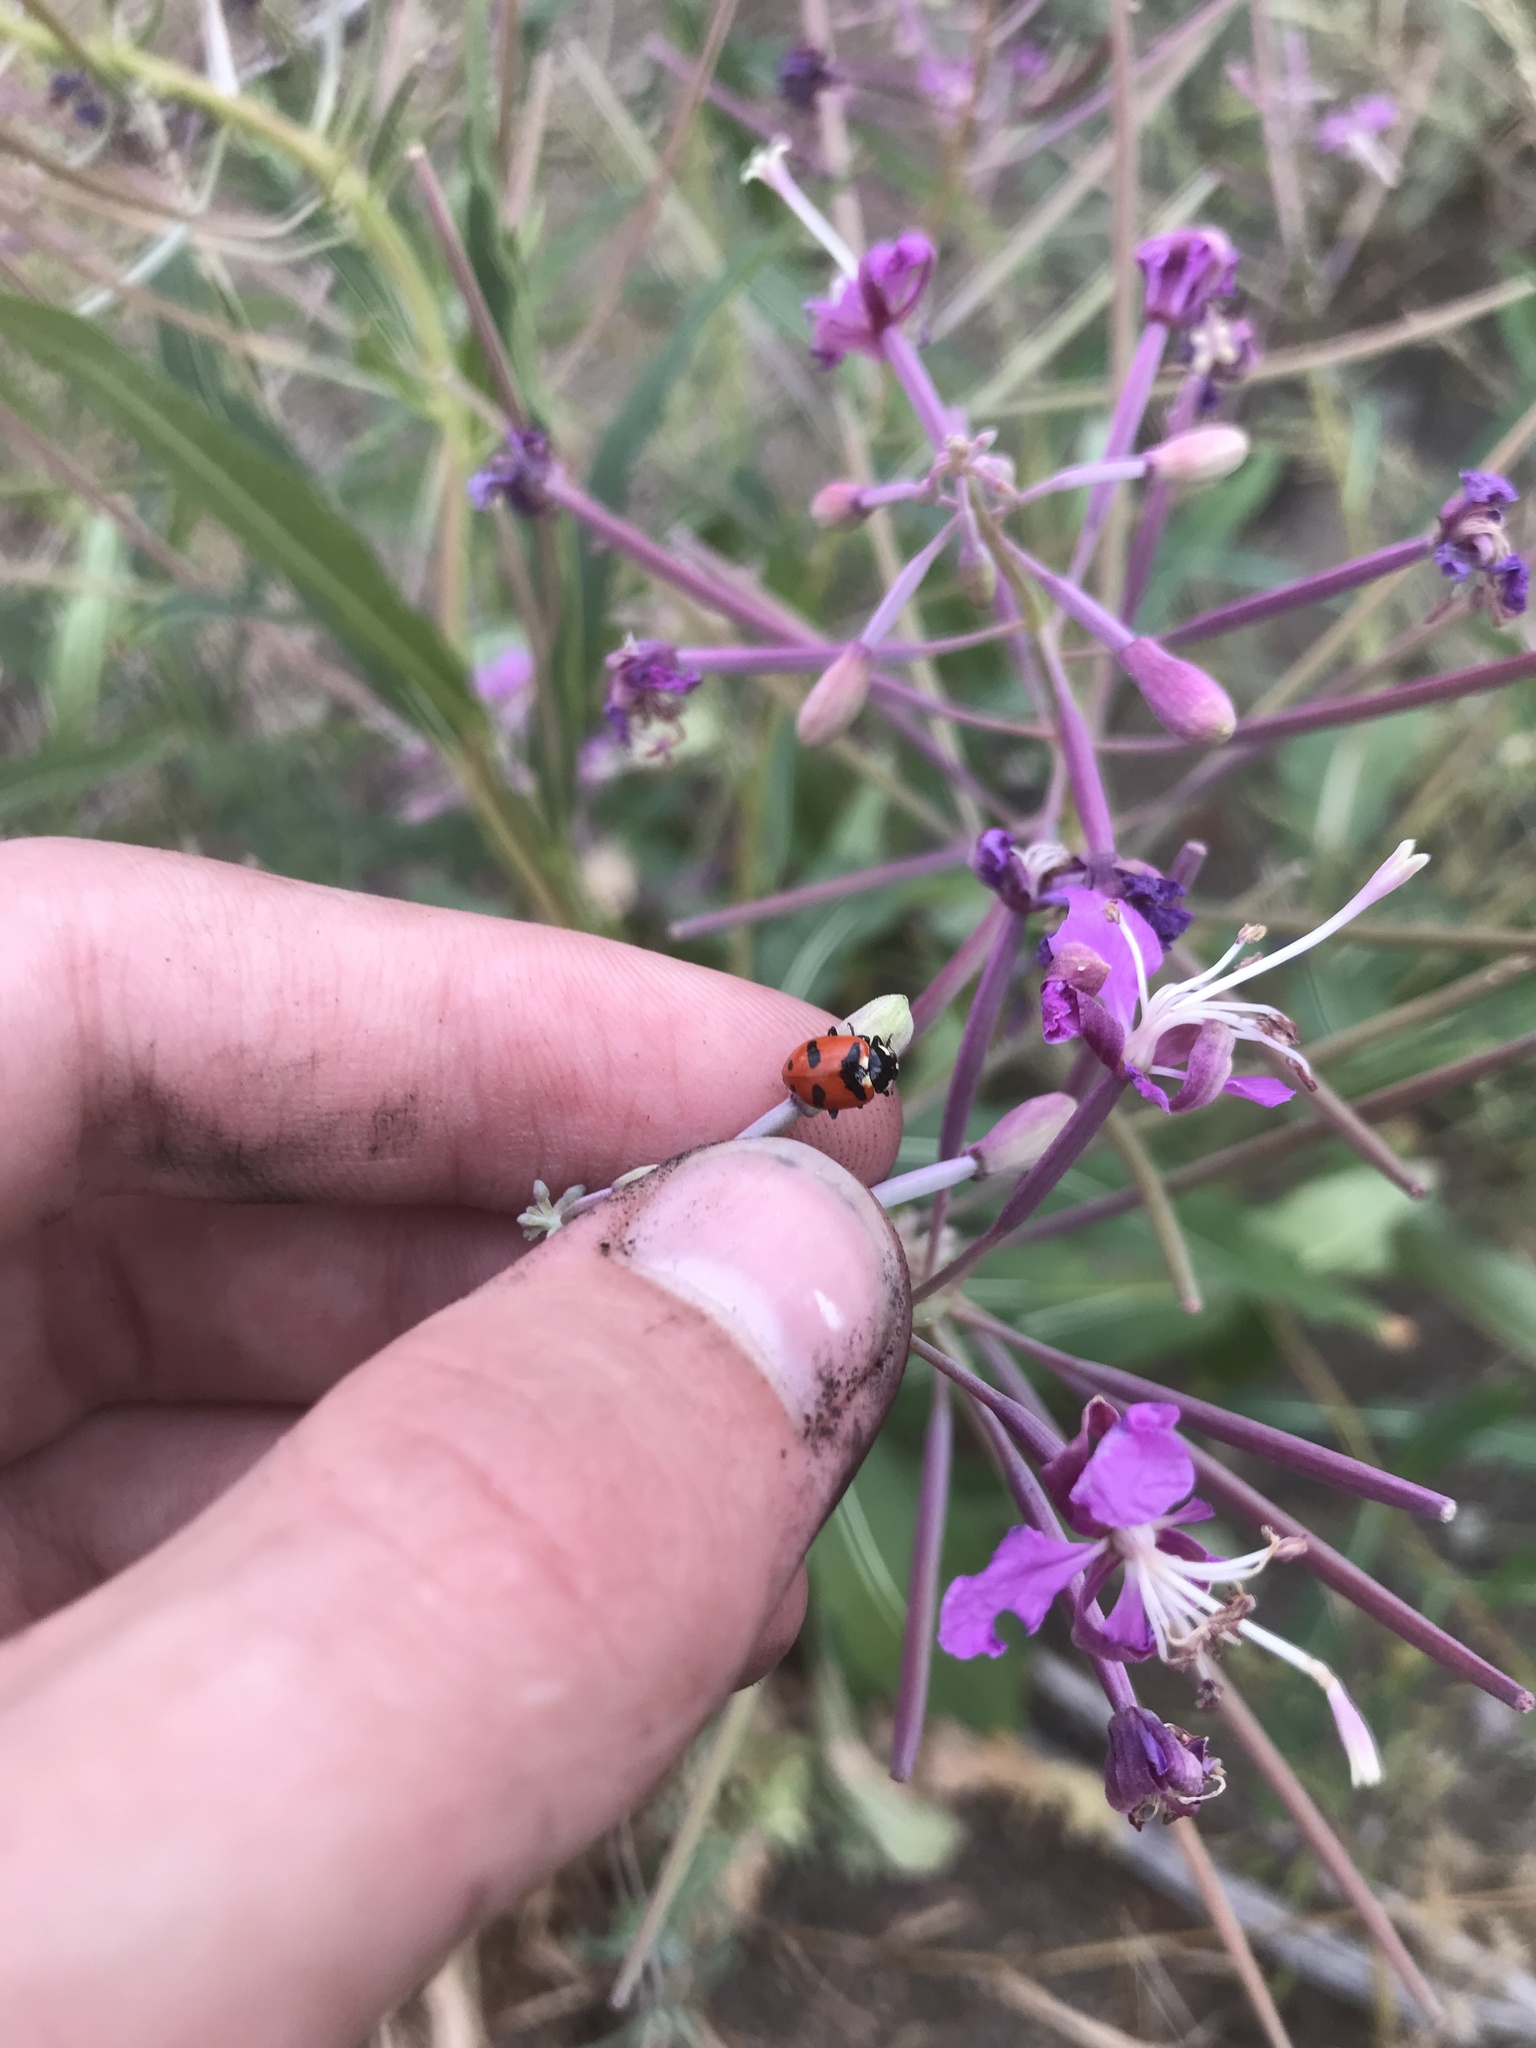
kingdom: Animalia
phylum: Arthropoda
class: Insecta
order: Coleoptera
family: Coccinellidae
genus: Coccinella
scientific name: Coccinella transversoguttata
